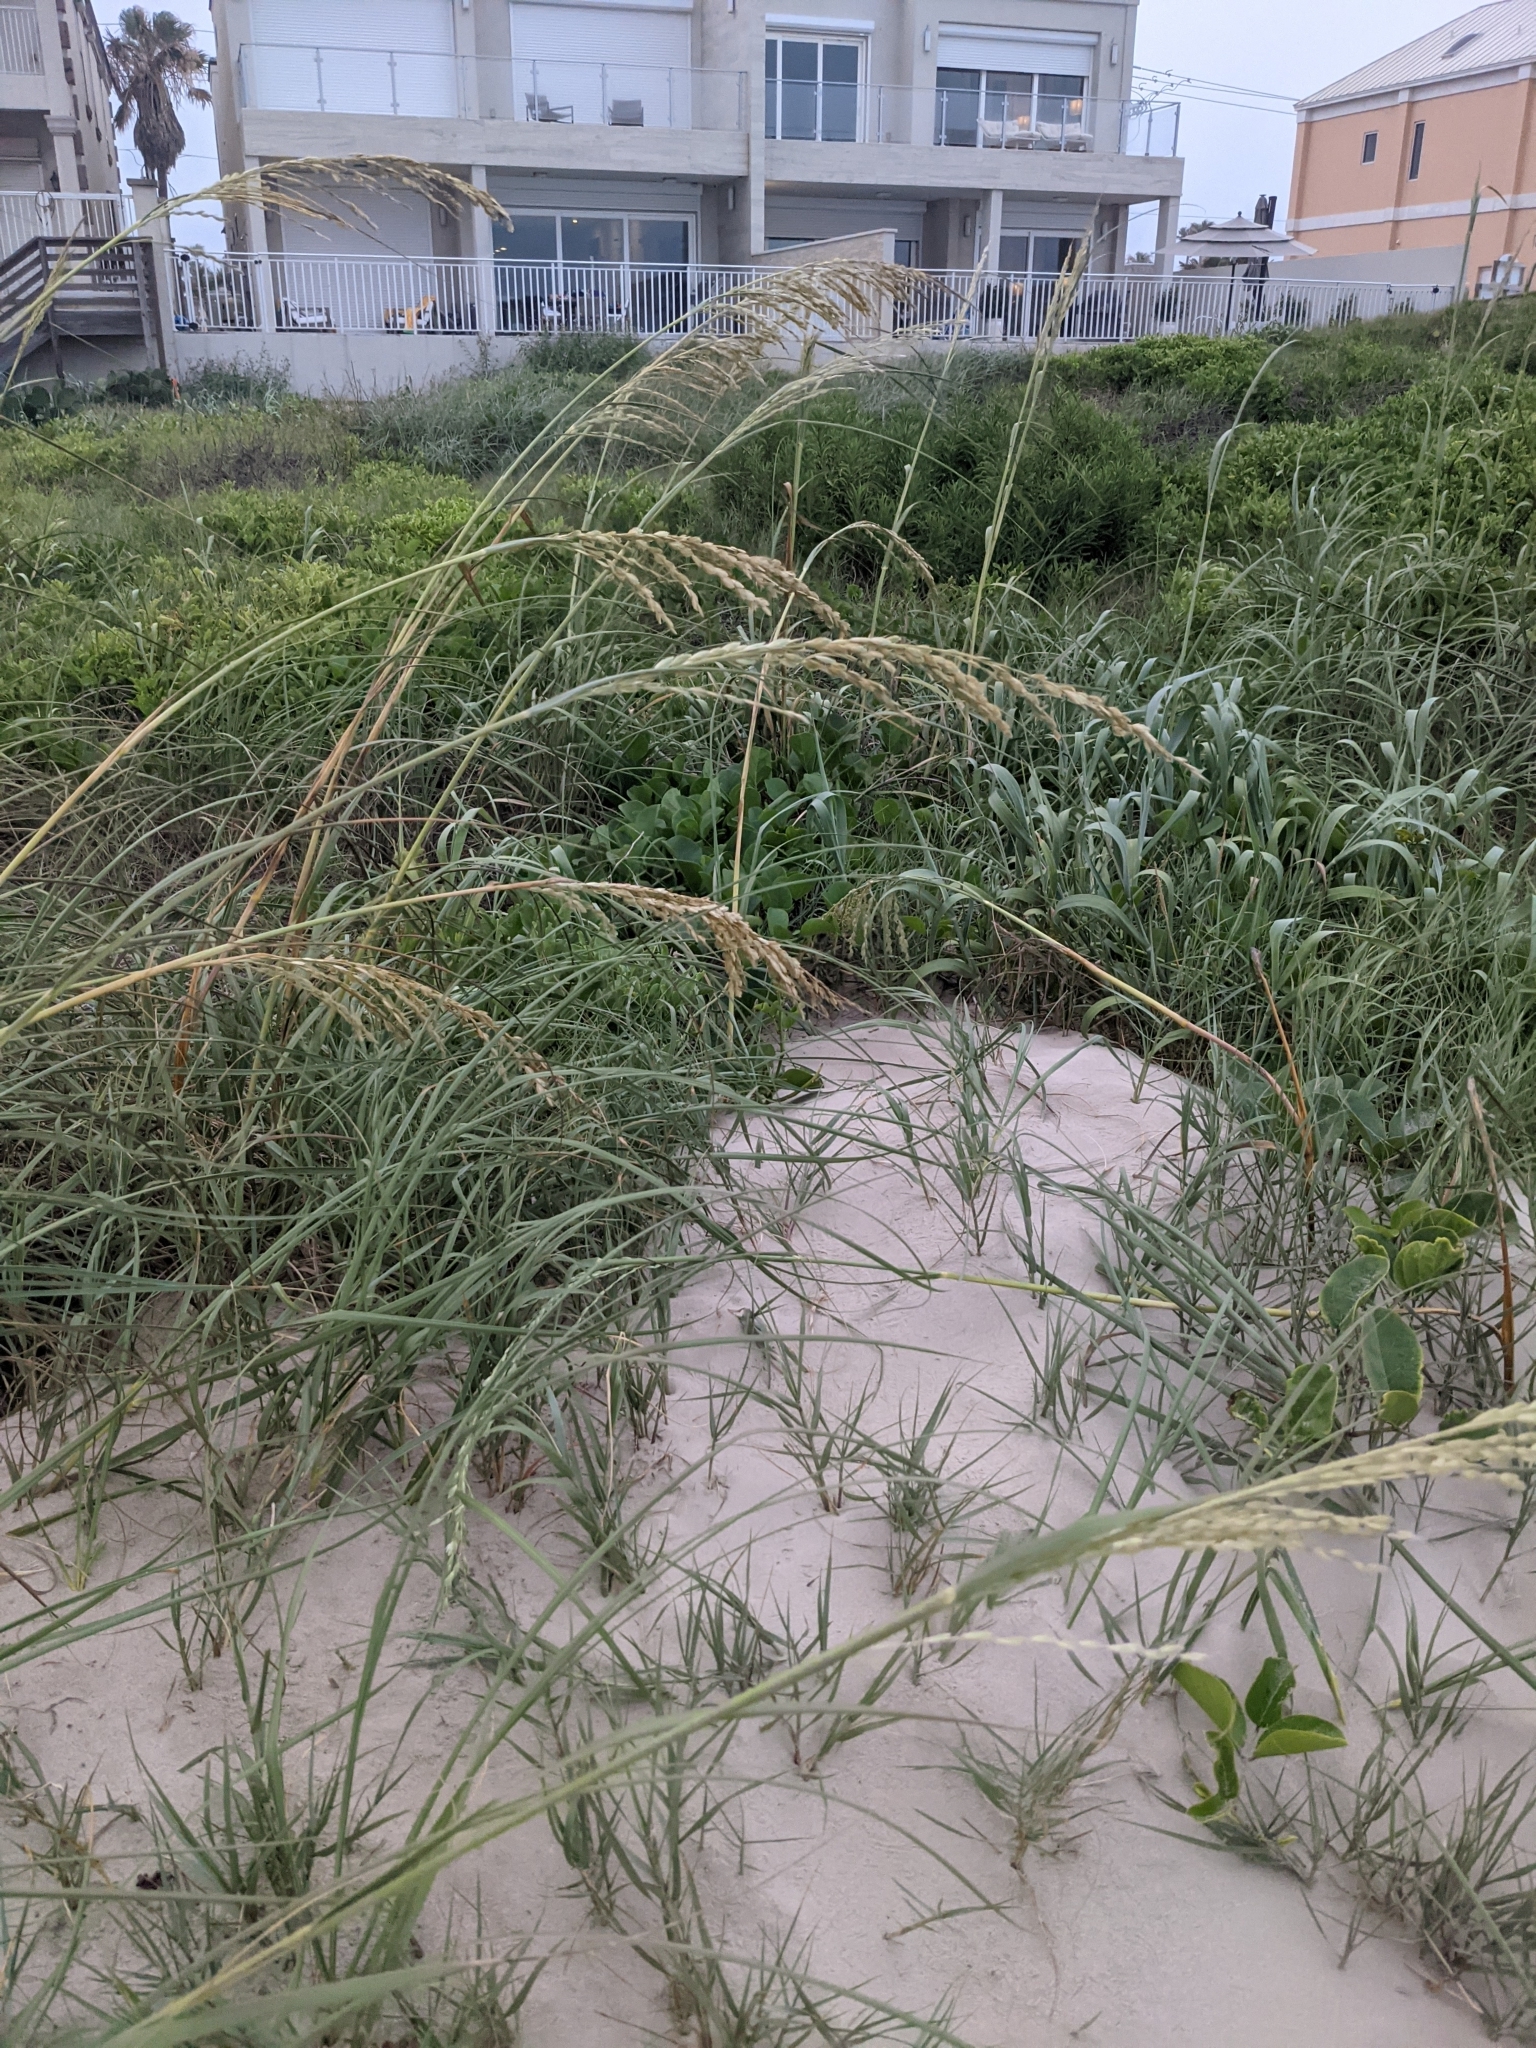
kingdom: Plantae
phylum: Tracheophyta
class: Liliopsida
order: Poales
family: Poaceae
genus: Uniola
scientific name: Uniola paniculata
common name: Seaside-oats
